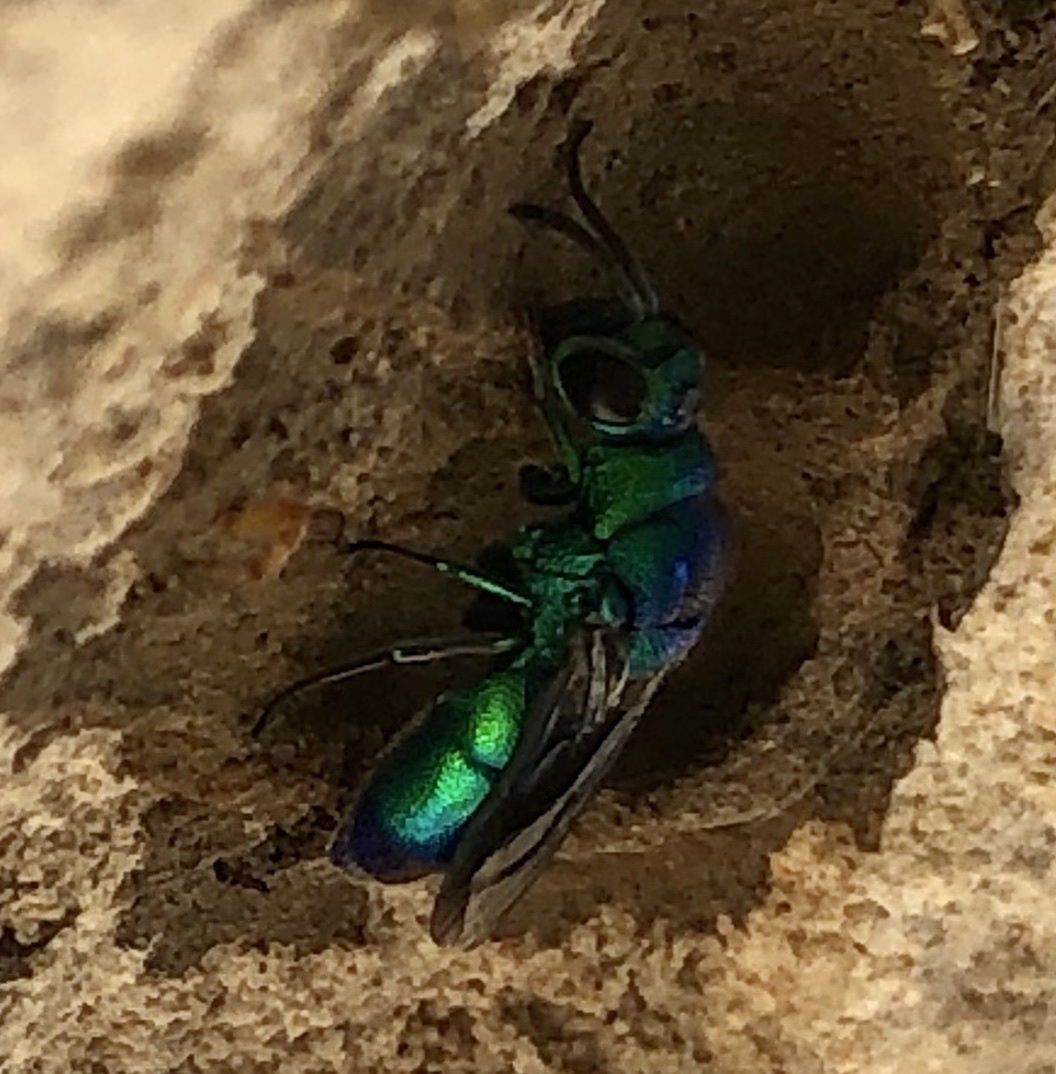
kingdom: Animalia
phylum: Arthropoda
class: Insecta
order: Hymenoptera
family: Chrysididae
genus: Chrysis
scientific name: Chrysis angolensis
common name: Cuckoo wasp
